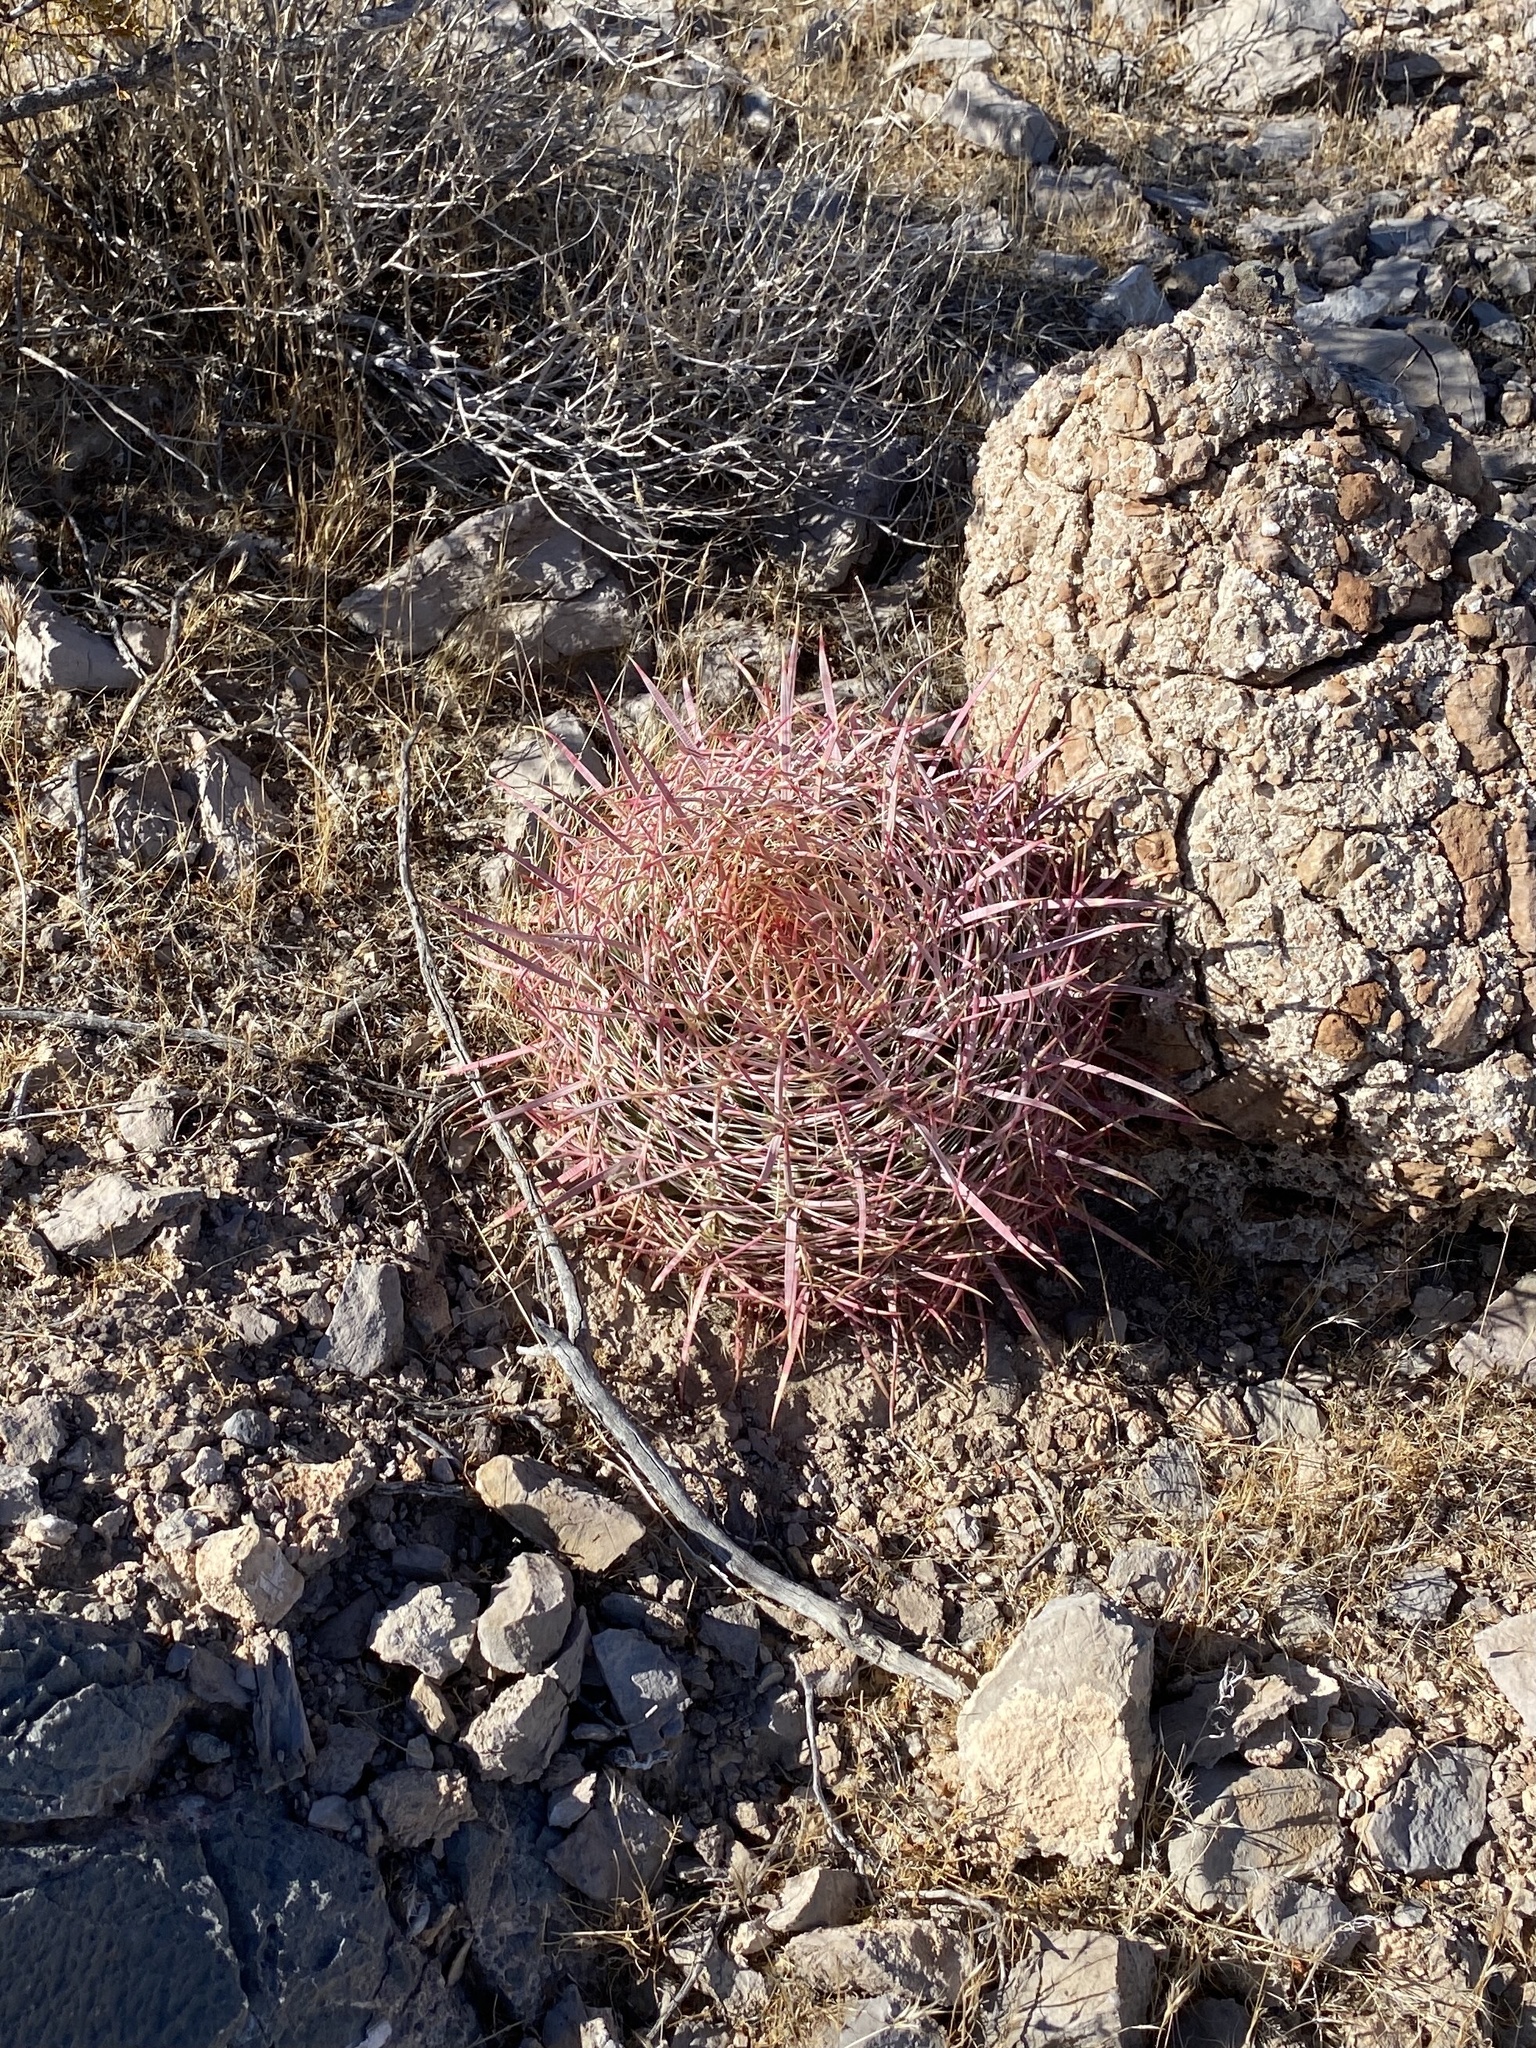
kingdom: Plantae
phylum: Tracheophyta
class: Magnoliopsida
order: Caryophyllales
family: Cactaceae
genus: Ferocactus
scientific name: Ferocactus cylindraceus
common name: California barrel cactus
